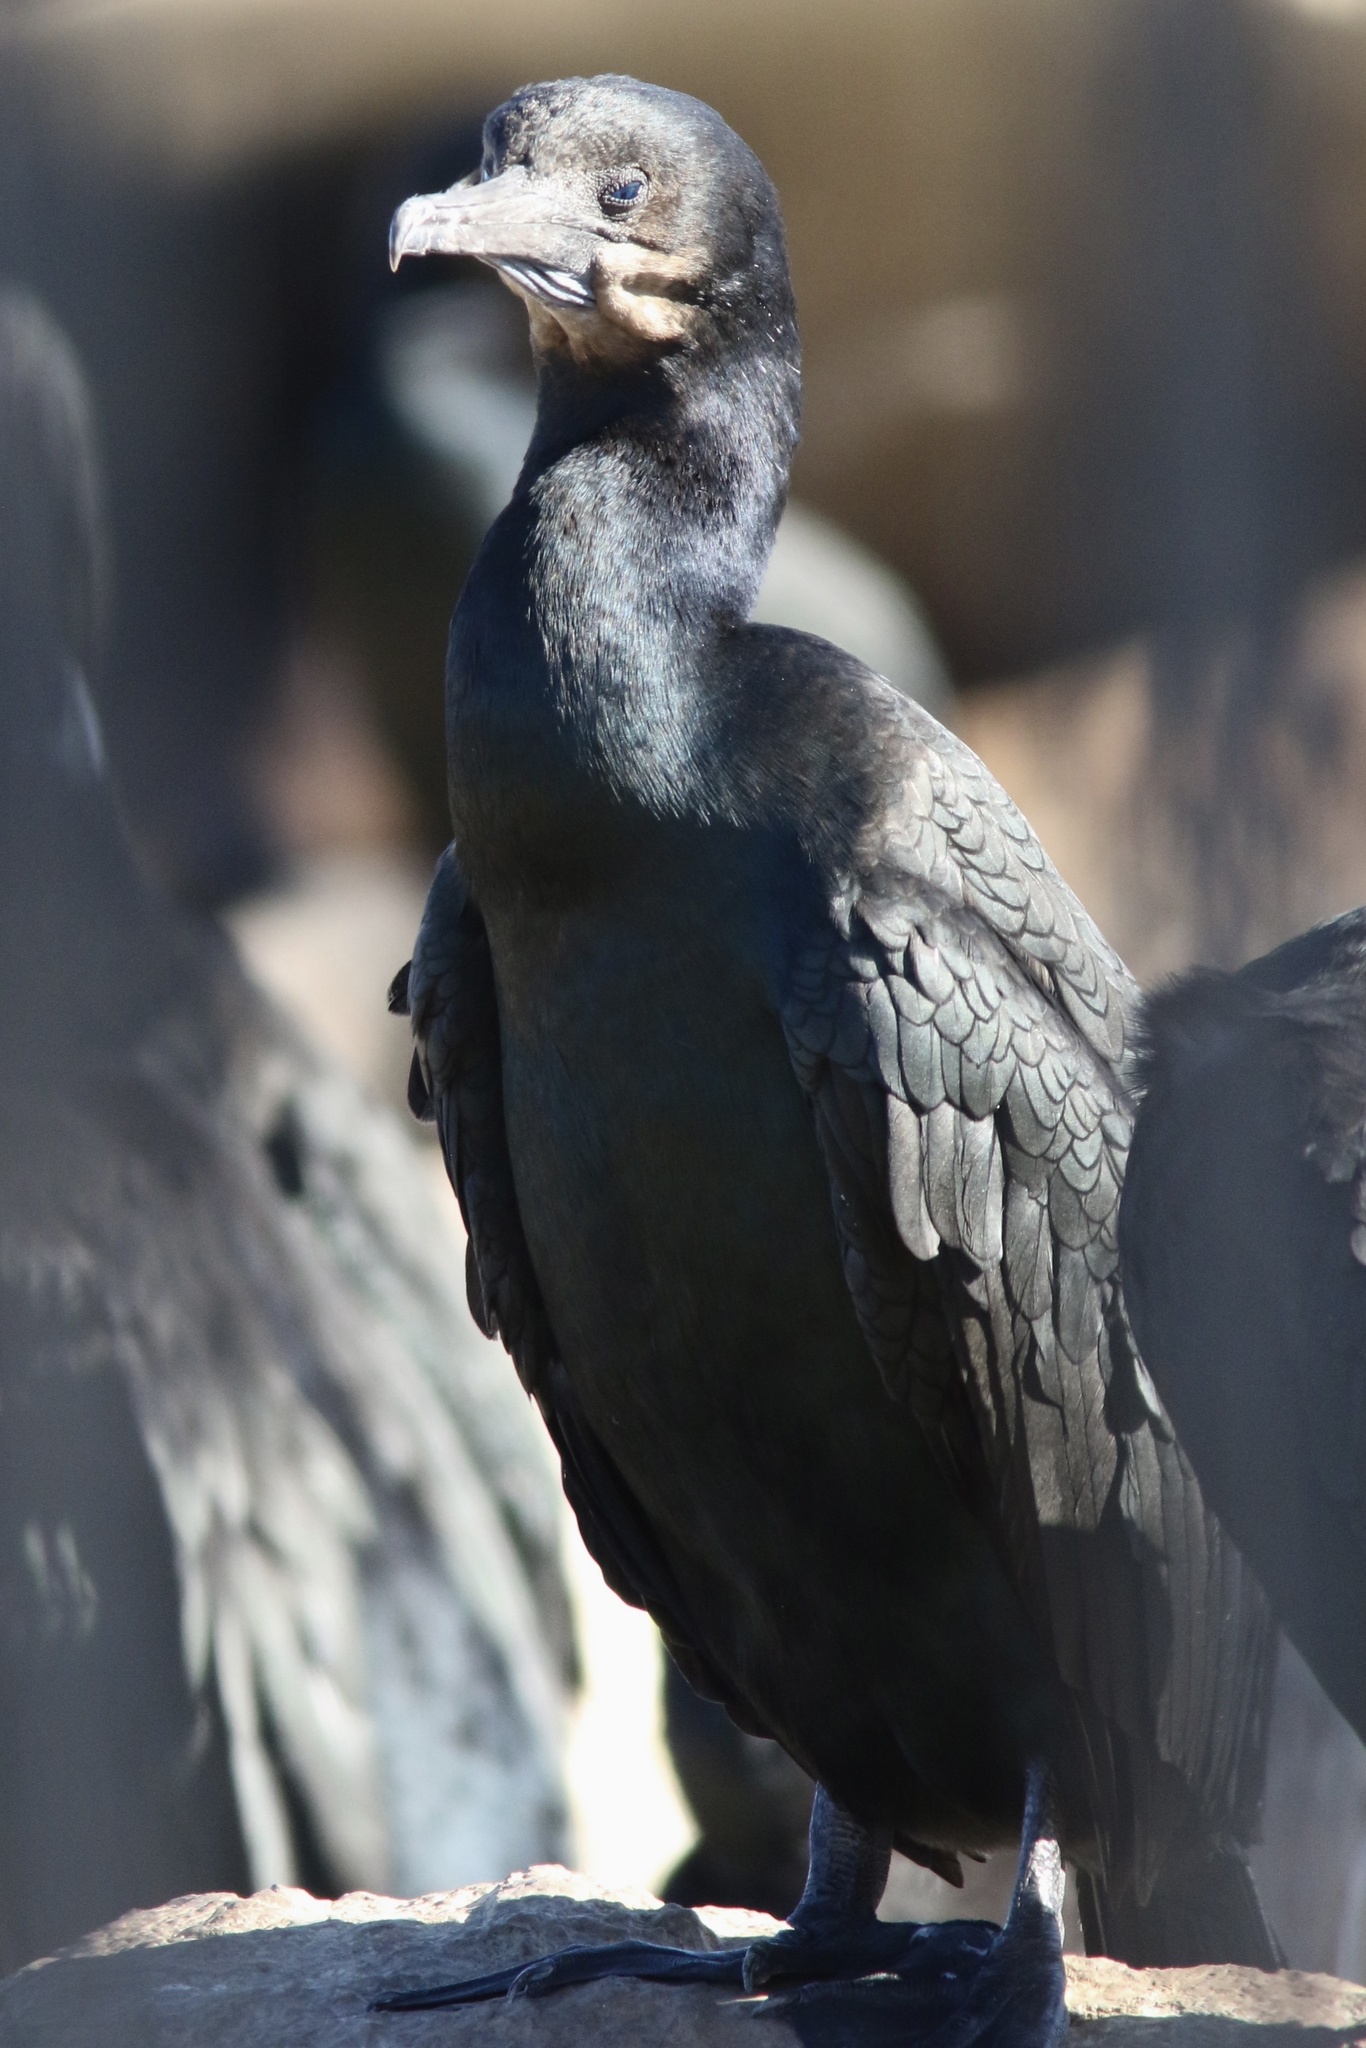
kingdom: Animalia
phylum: Chordata
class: Aves
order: Suliformes
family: Phalacrocoracidae
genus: Urile
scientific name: Urile penicillatus
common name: Brandt's cormorant
